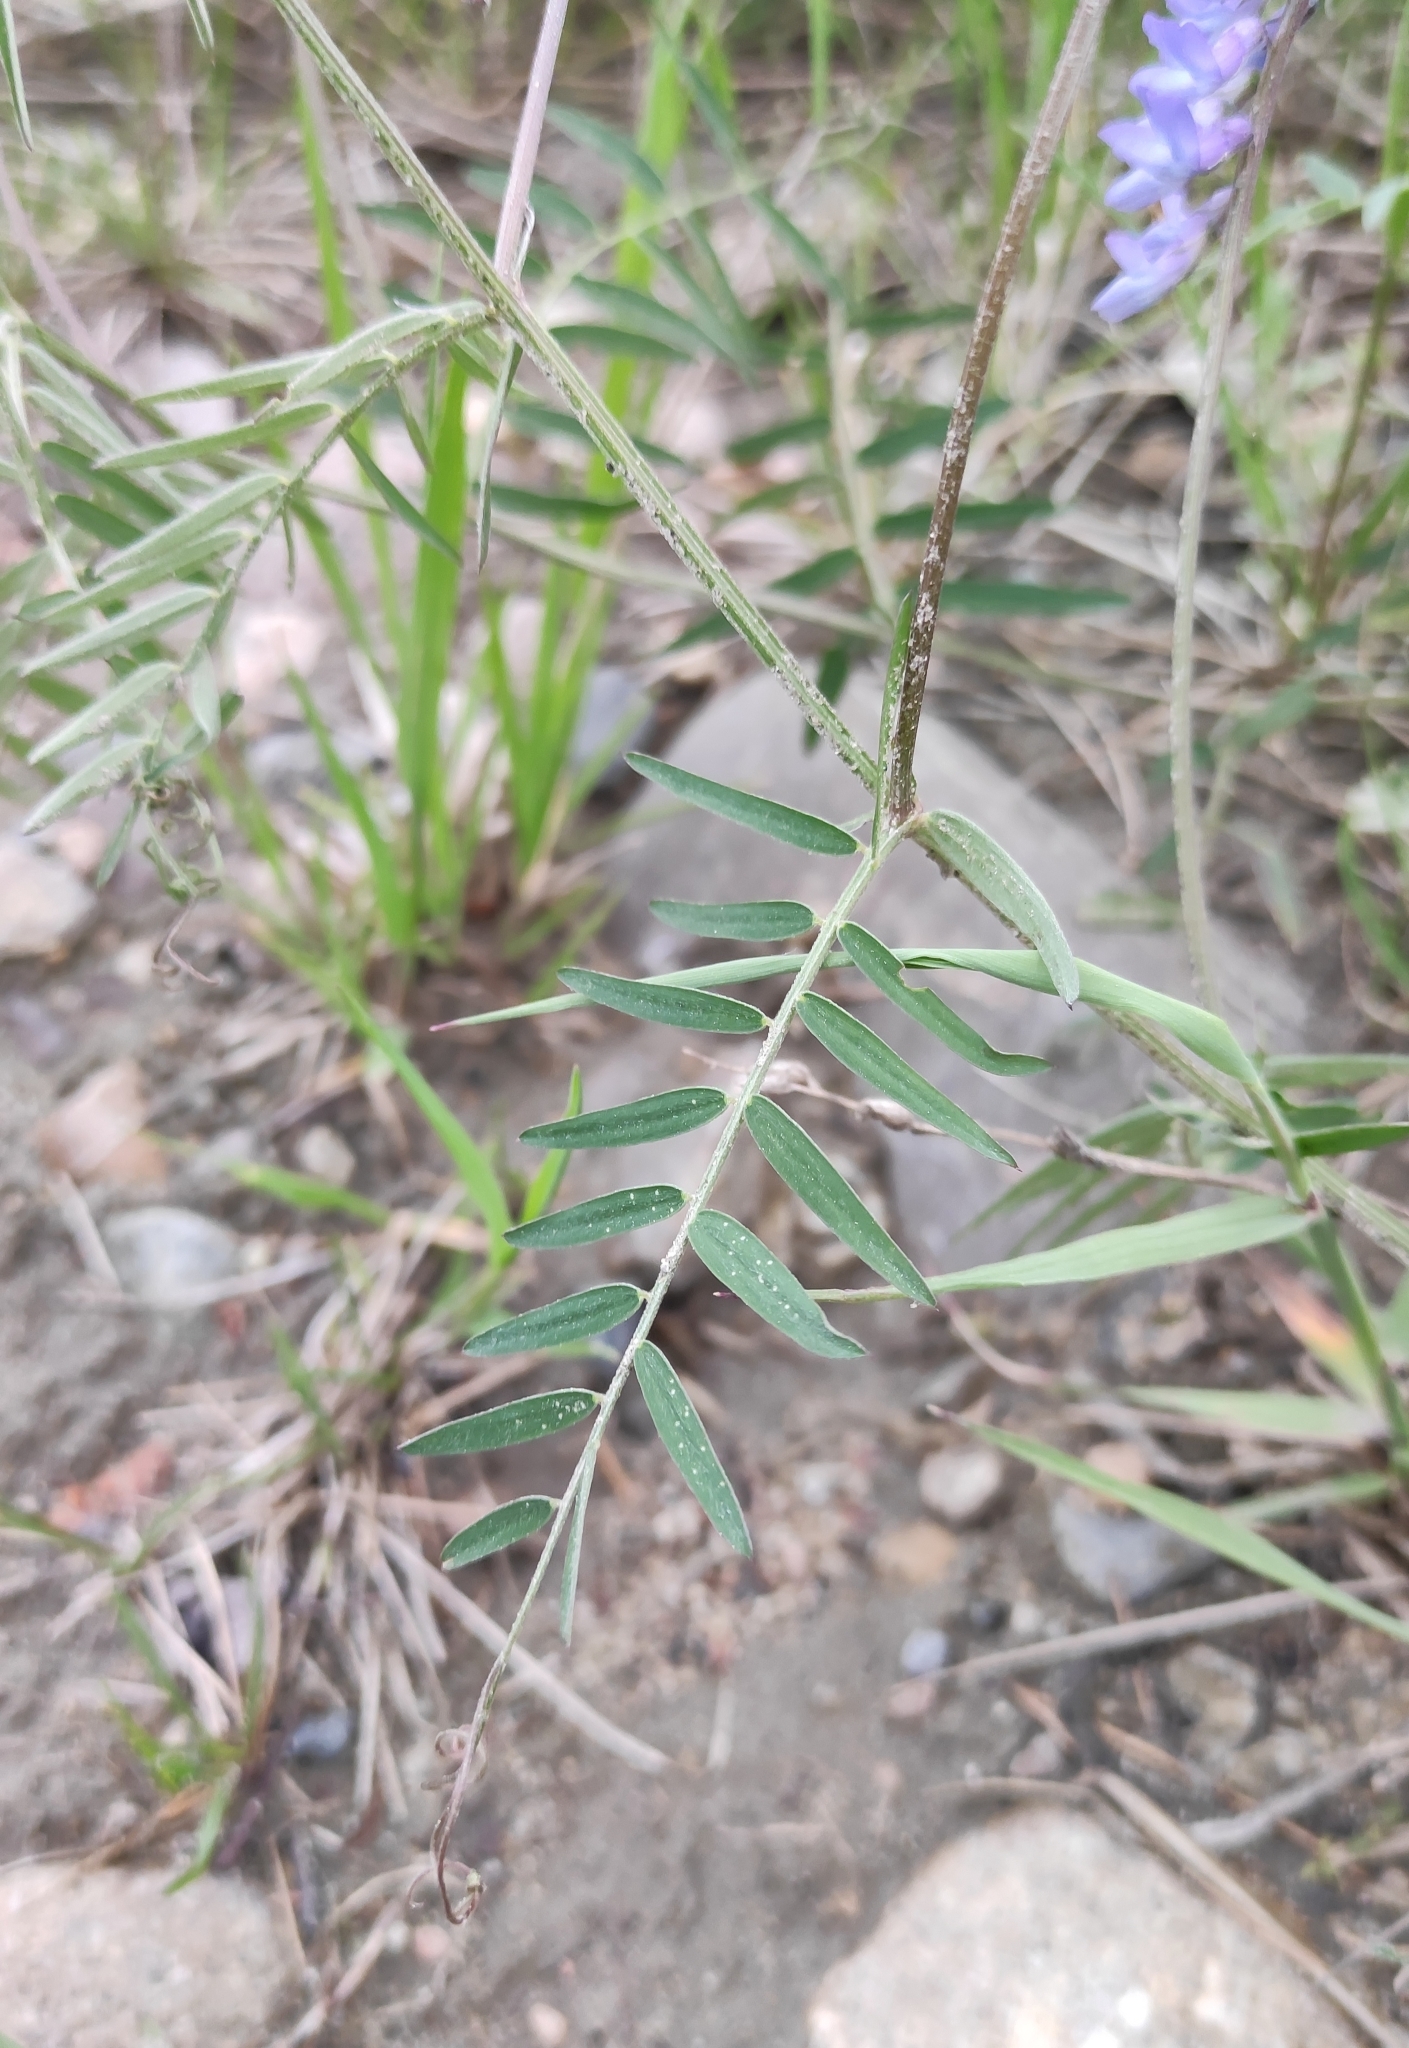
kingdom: Plantae
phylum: Tracheophyta
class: Magnoliopsida
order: Fabales
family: Fabaceae
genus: Vicia
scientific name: Vicia cracca
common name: Bird vetch
